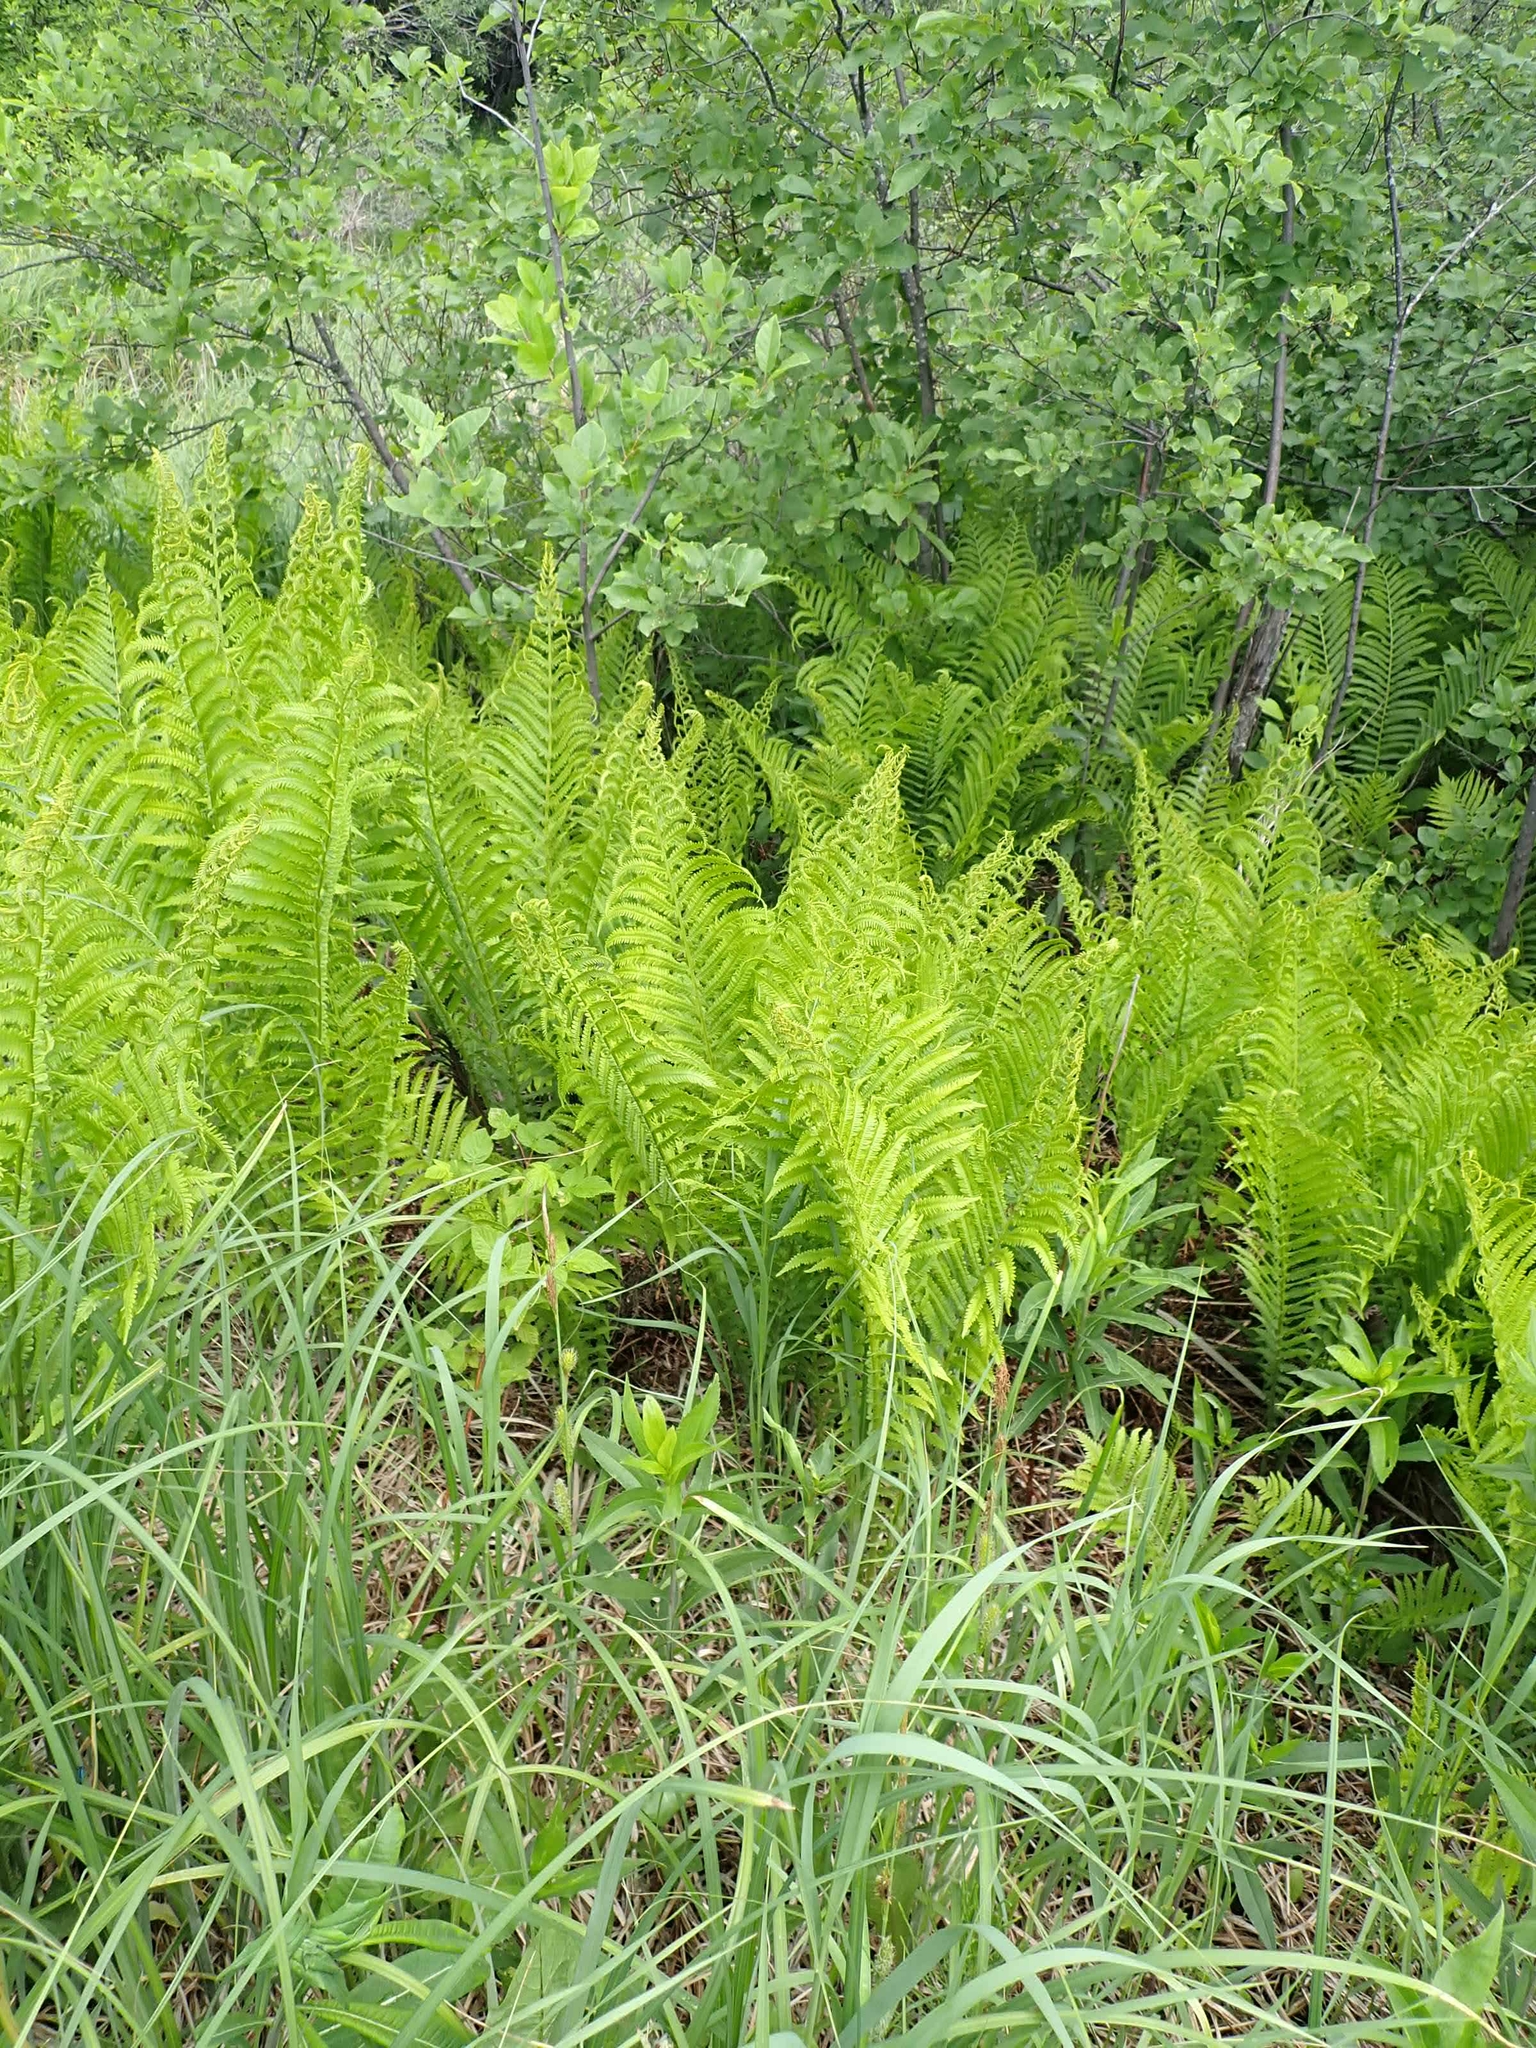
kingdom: Plantae
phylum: Tracheophyta
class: Polypodiopsida
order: Polypodiales
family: Onocleaceae
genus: Matteuccia
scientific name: Matteuccia struthiopteris
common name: Ostrich fern
